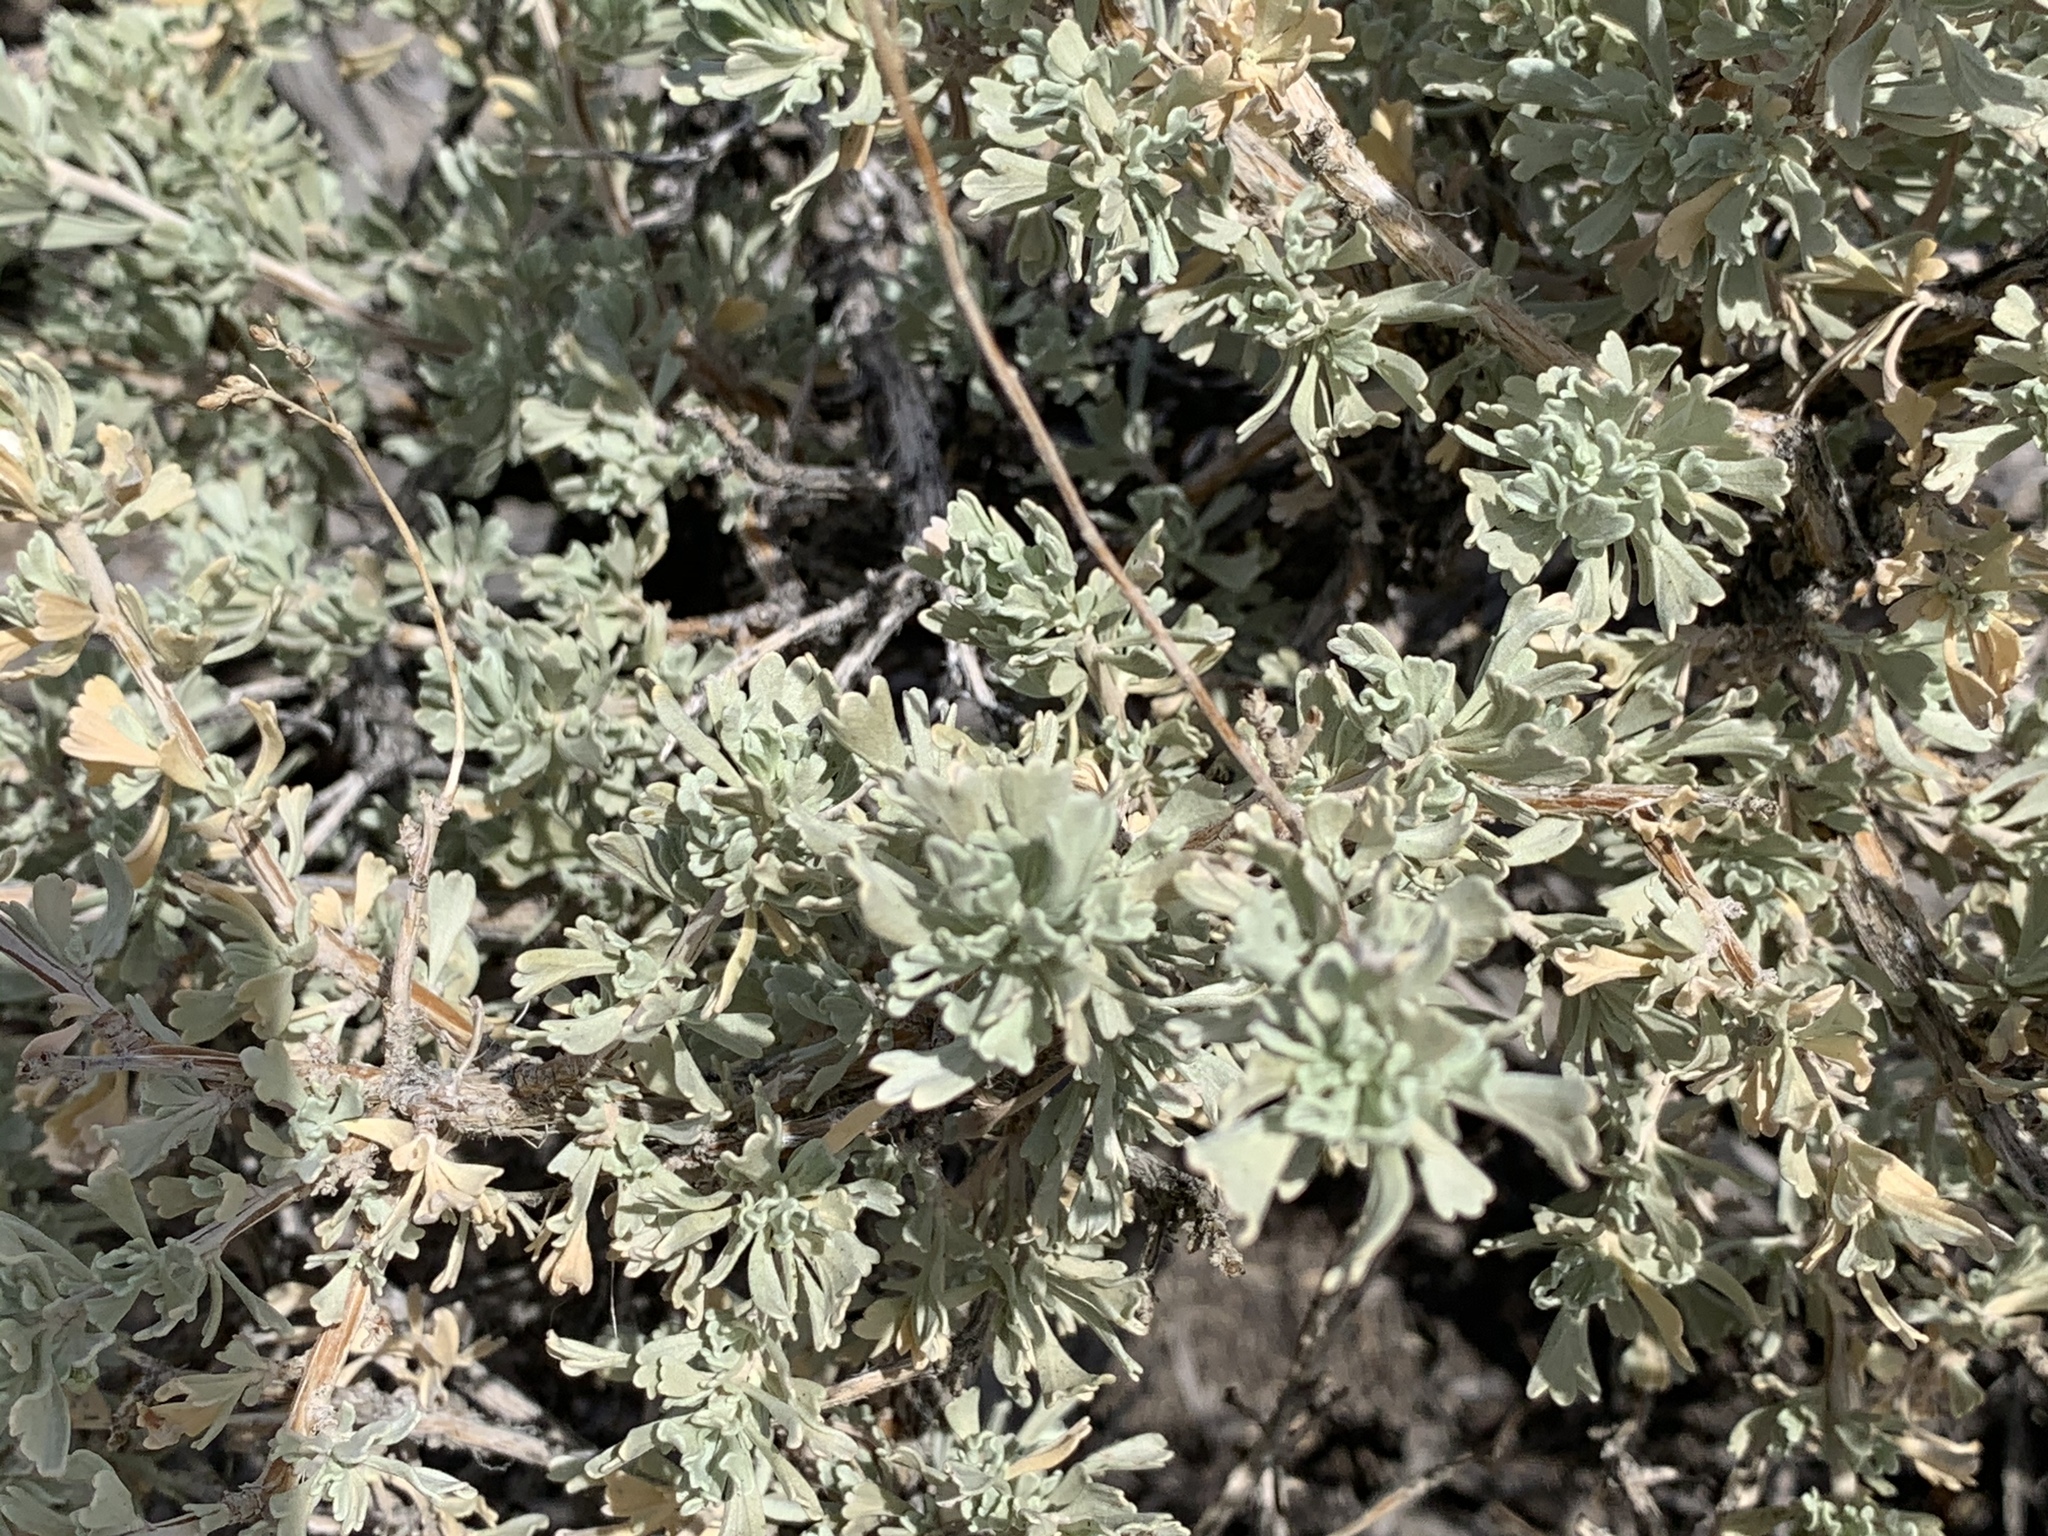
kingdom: Plantae
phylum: Tracheophyta
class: Magnoliopsida
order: Asterales
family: Asteraceae
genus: Artemisia
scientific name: Artemisia tridentata
